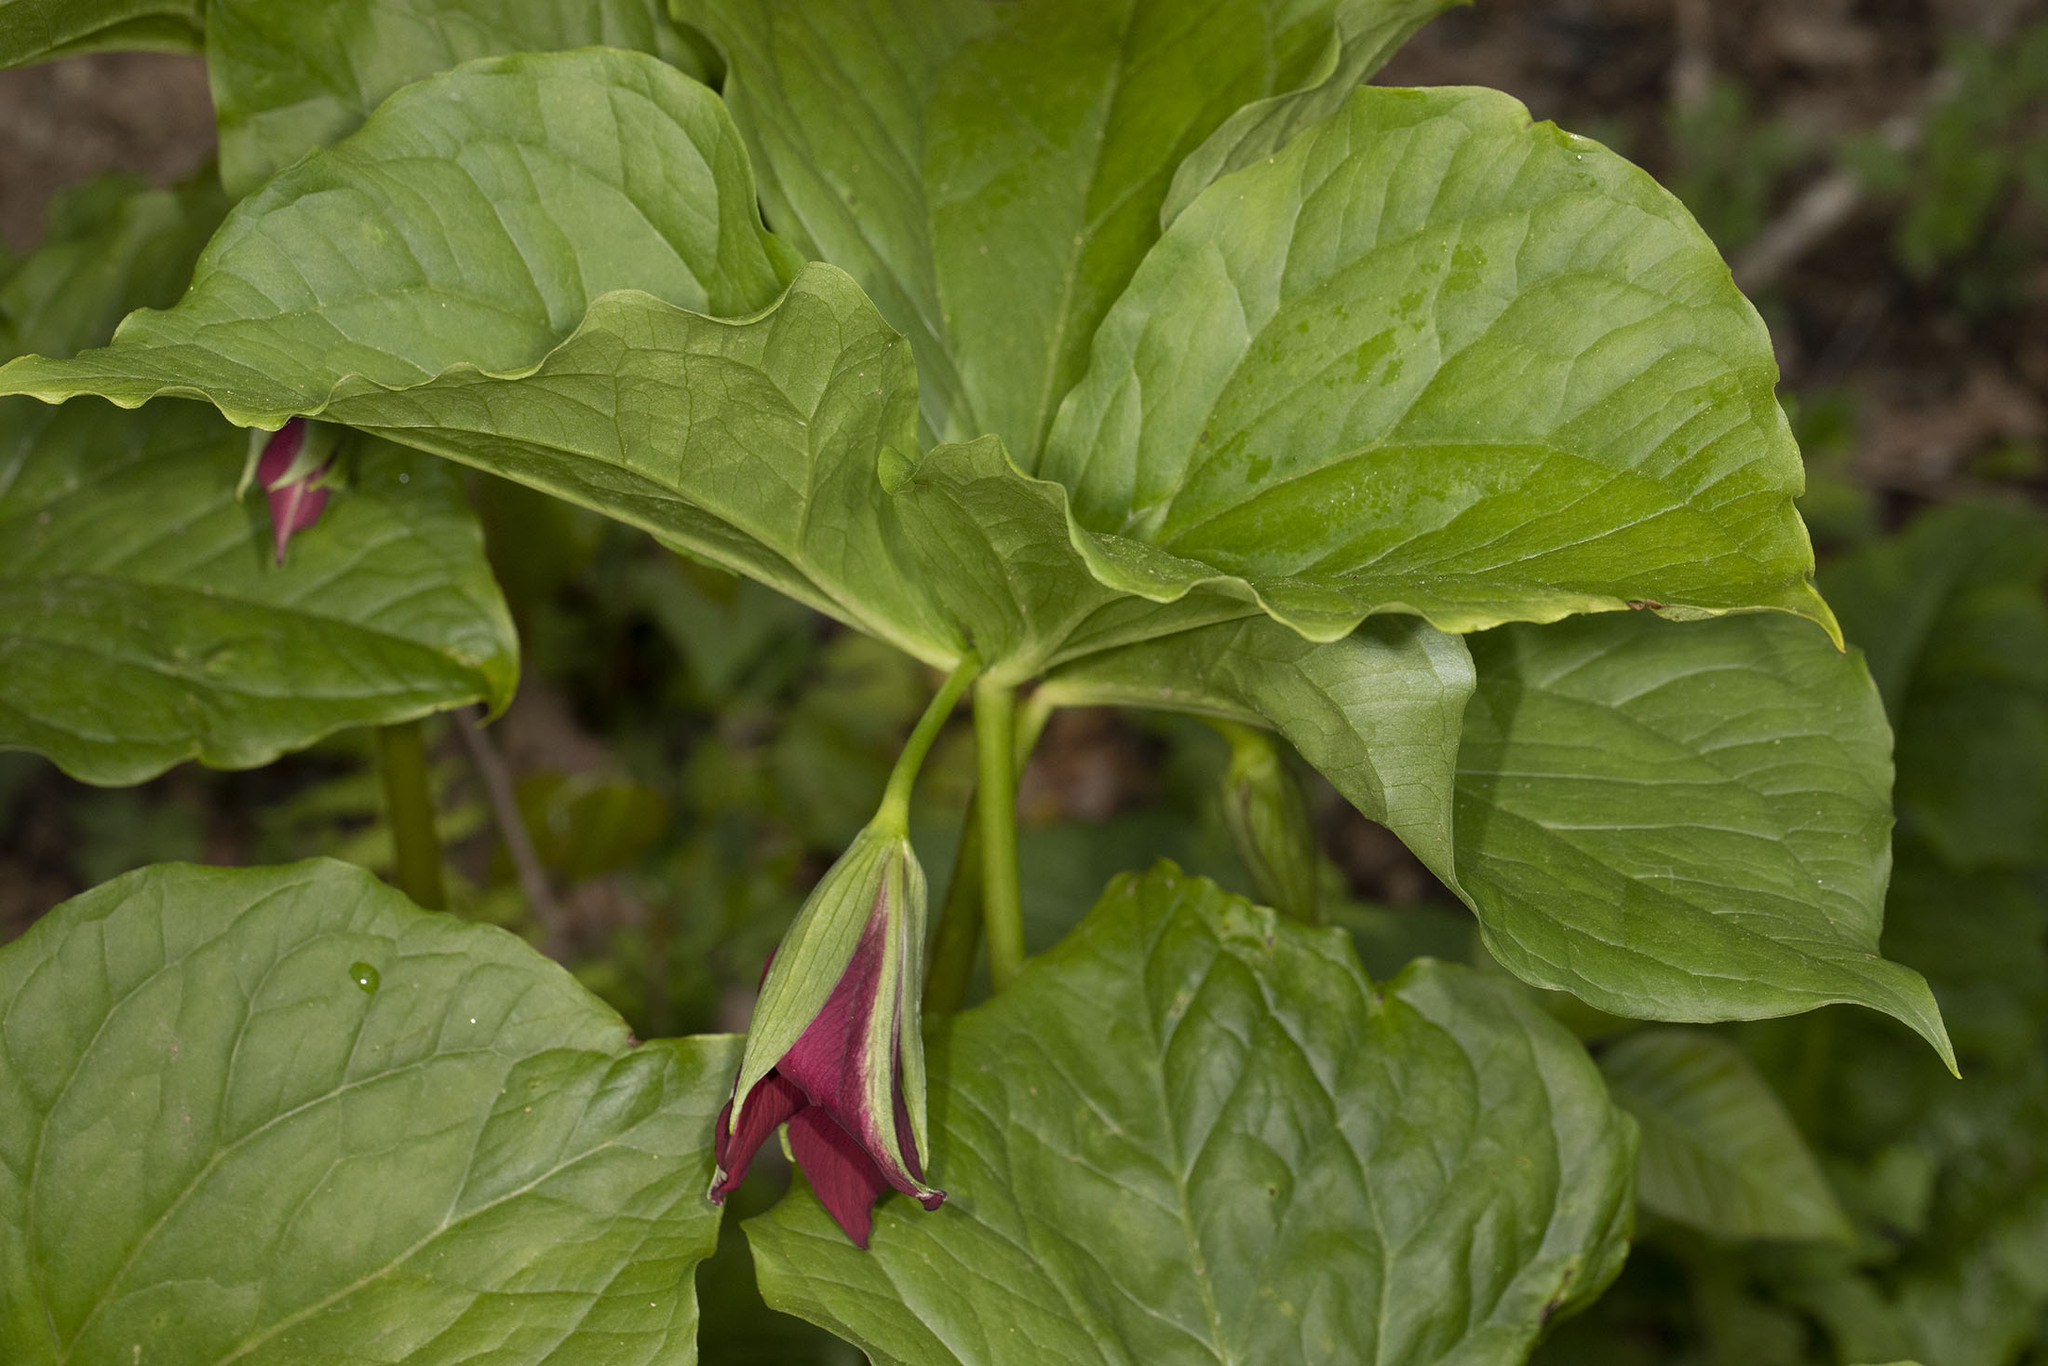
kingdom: Plantae
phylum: Tracheophyta
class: Liliopsida
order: Liliales
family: Melanthiaceae
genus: Trillium
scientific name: Trillium vaseyi
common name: Sweet trillium
